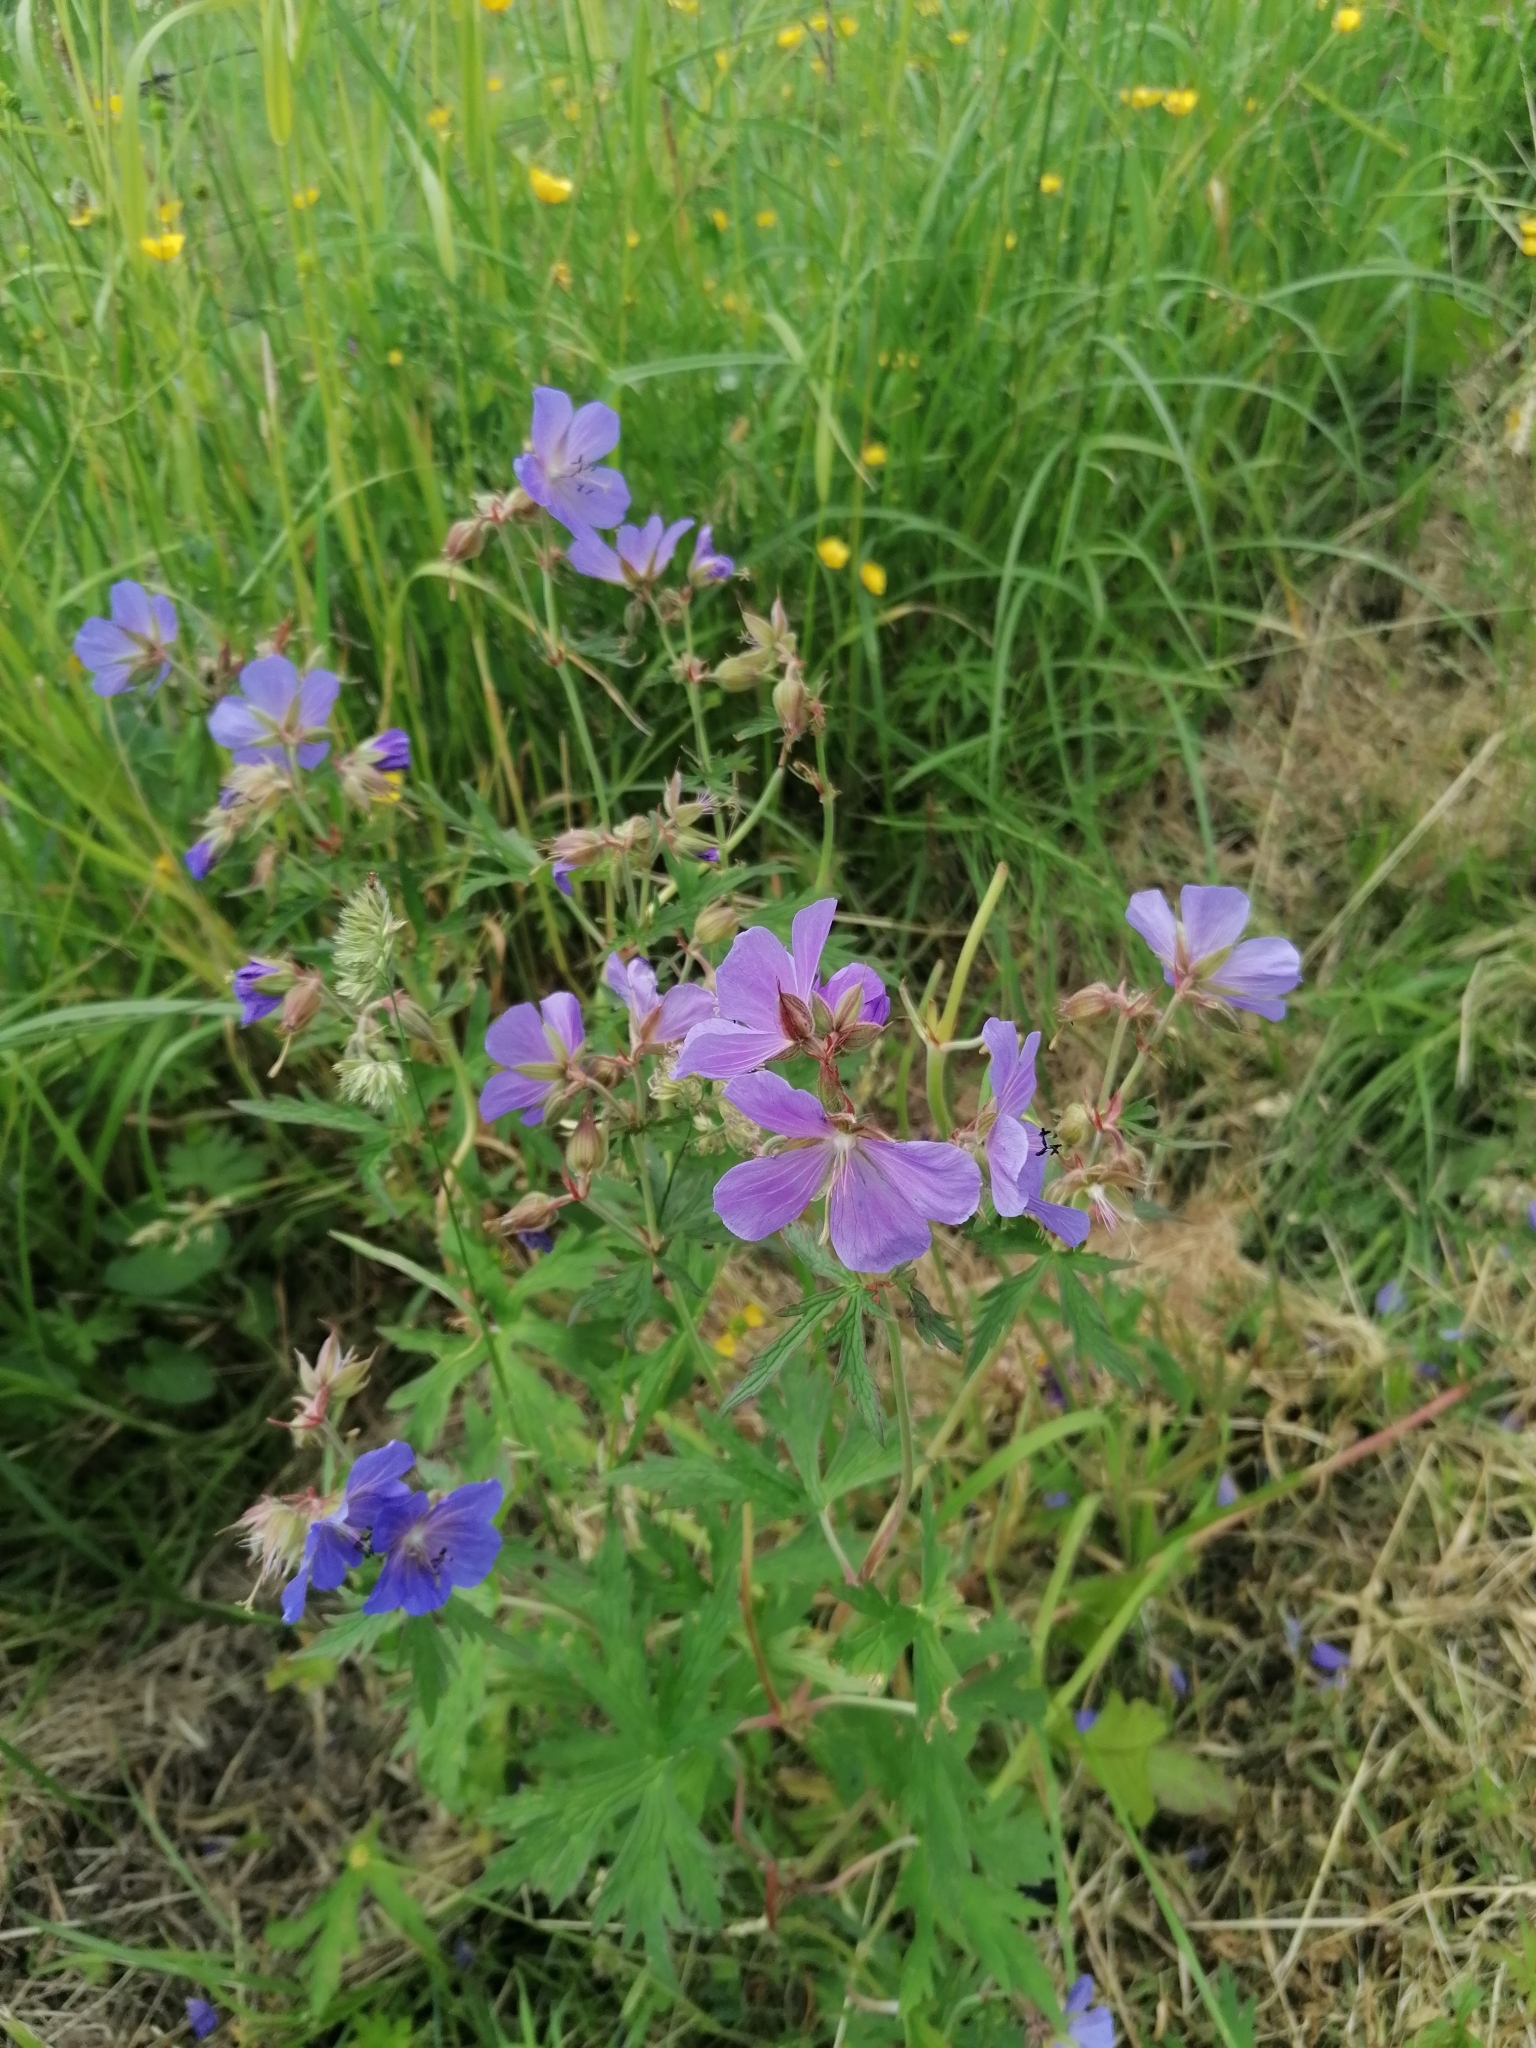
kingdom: Plantae
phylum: Tracheophyta
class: Magnoliopsida
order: Geraniales
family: Geraniaceae
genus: Geranium
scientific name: Geranium pratense
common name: Meadow crane's-bill
